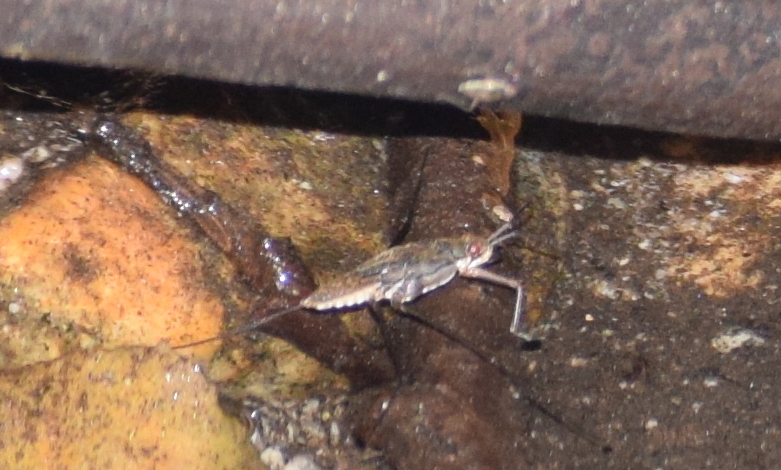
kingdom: Animalia
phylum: Arthropoda
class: Insecta
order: Hemiptera
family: Gerridae
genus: Aquarius
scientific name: Aquarius remigis
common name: Common water strider
